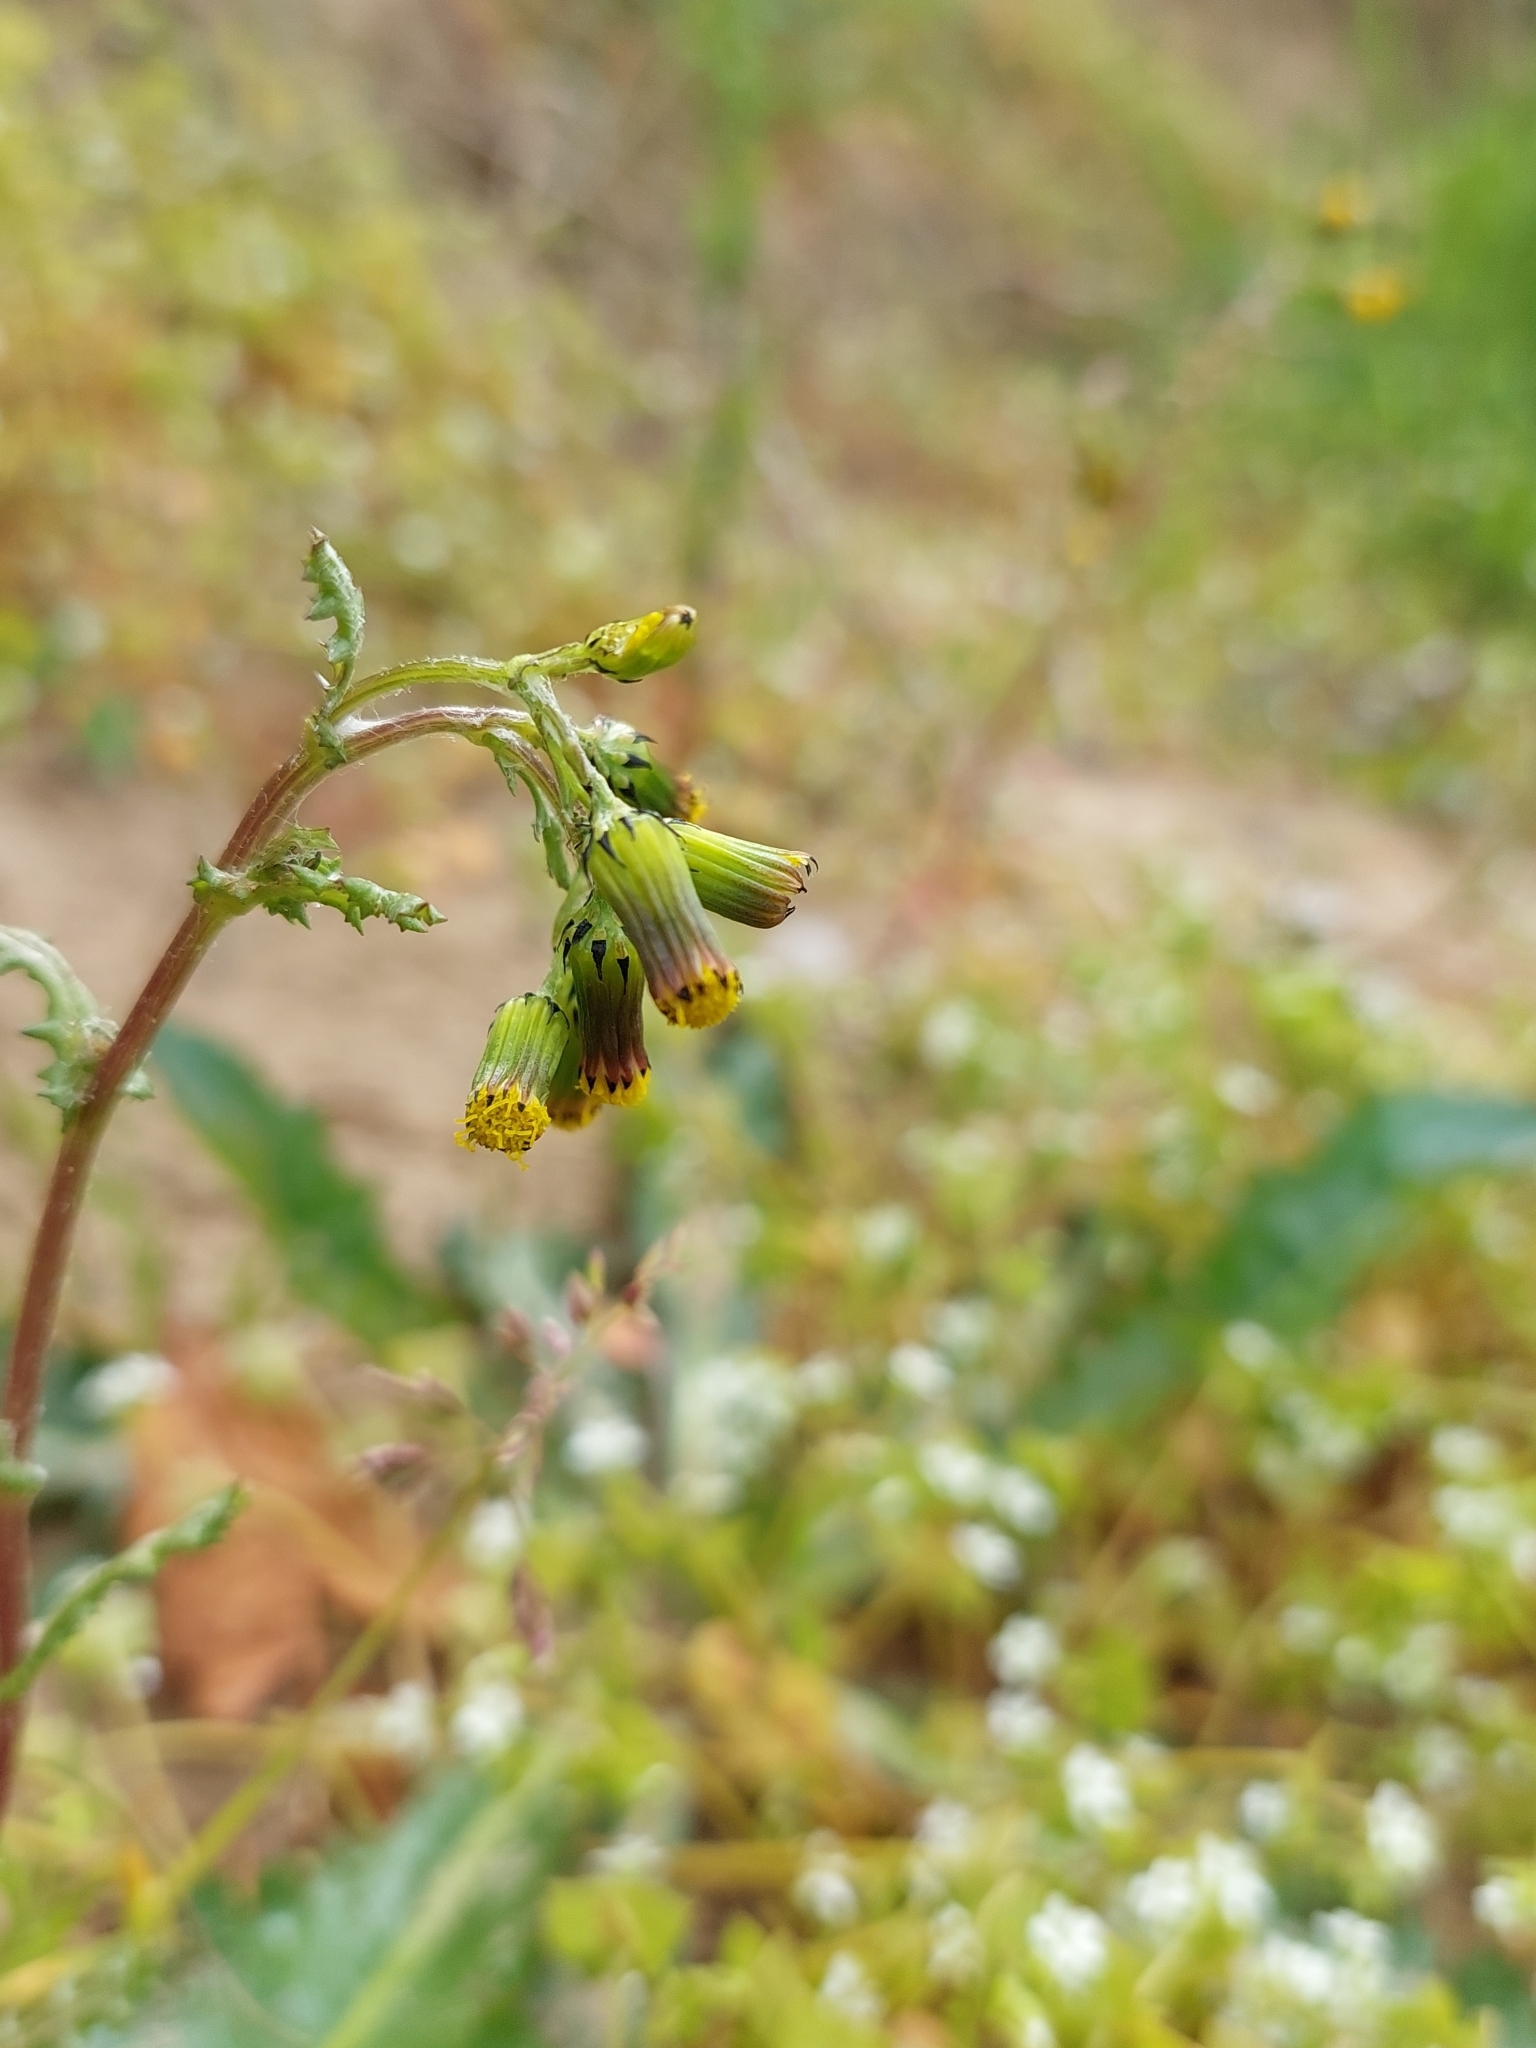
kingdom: Plantae
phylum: Tracheophyta
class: Magnoliopsida
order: Asterales
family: Asteraceae
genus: Senecio
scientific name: Senecio vulgaris
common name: Old-man-in-the-spring
